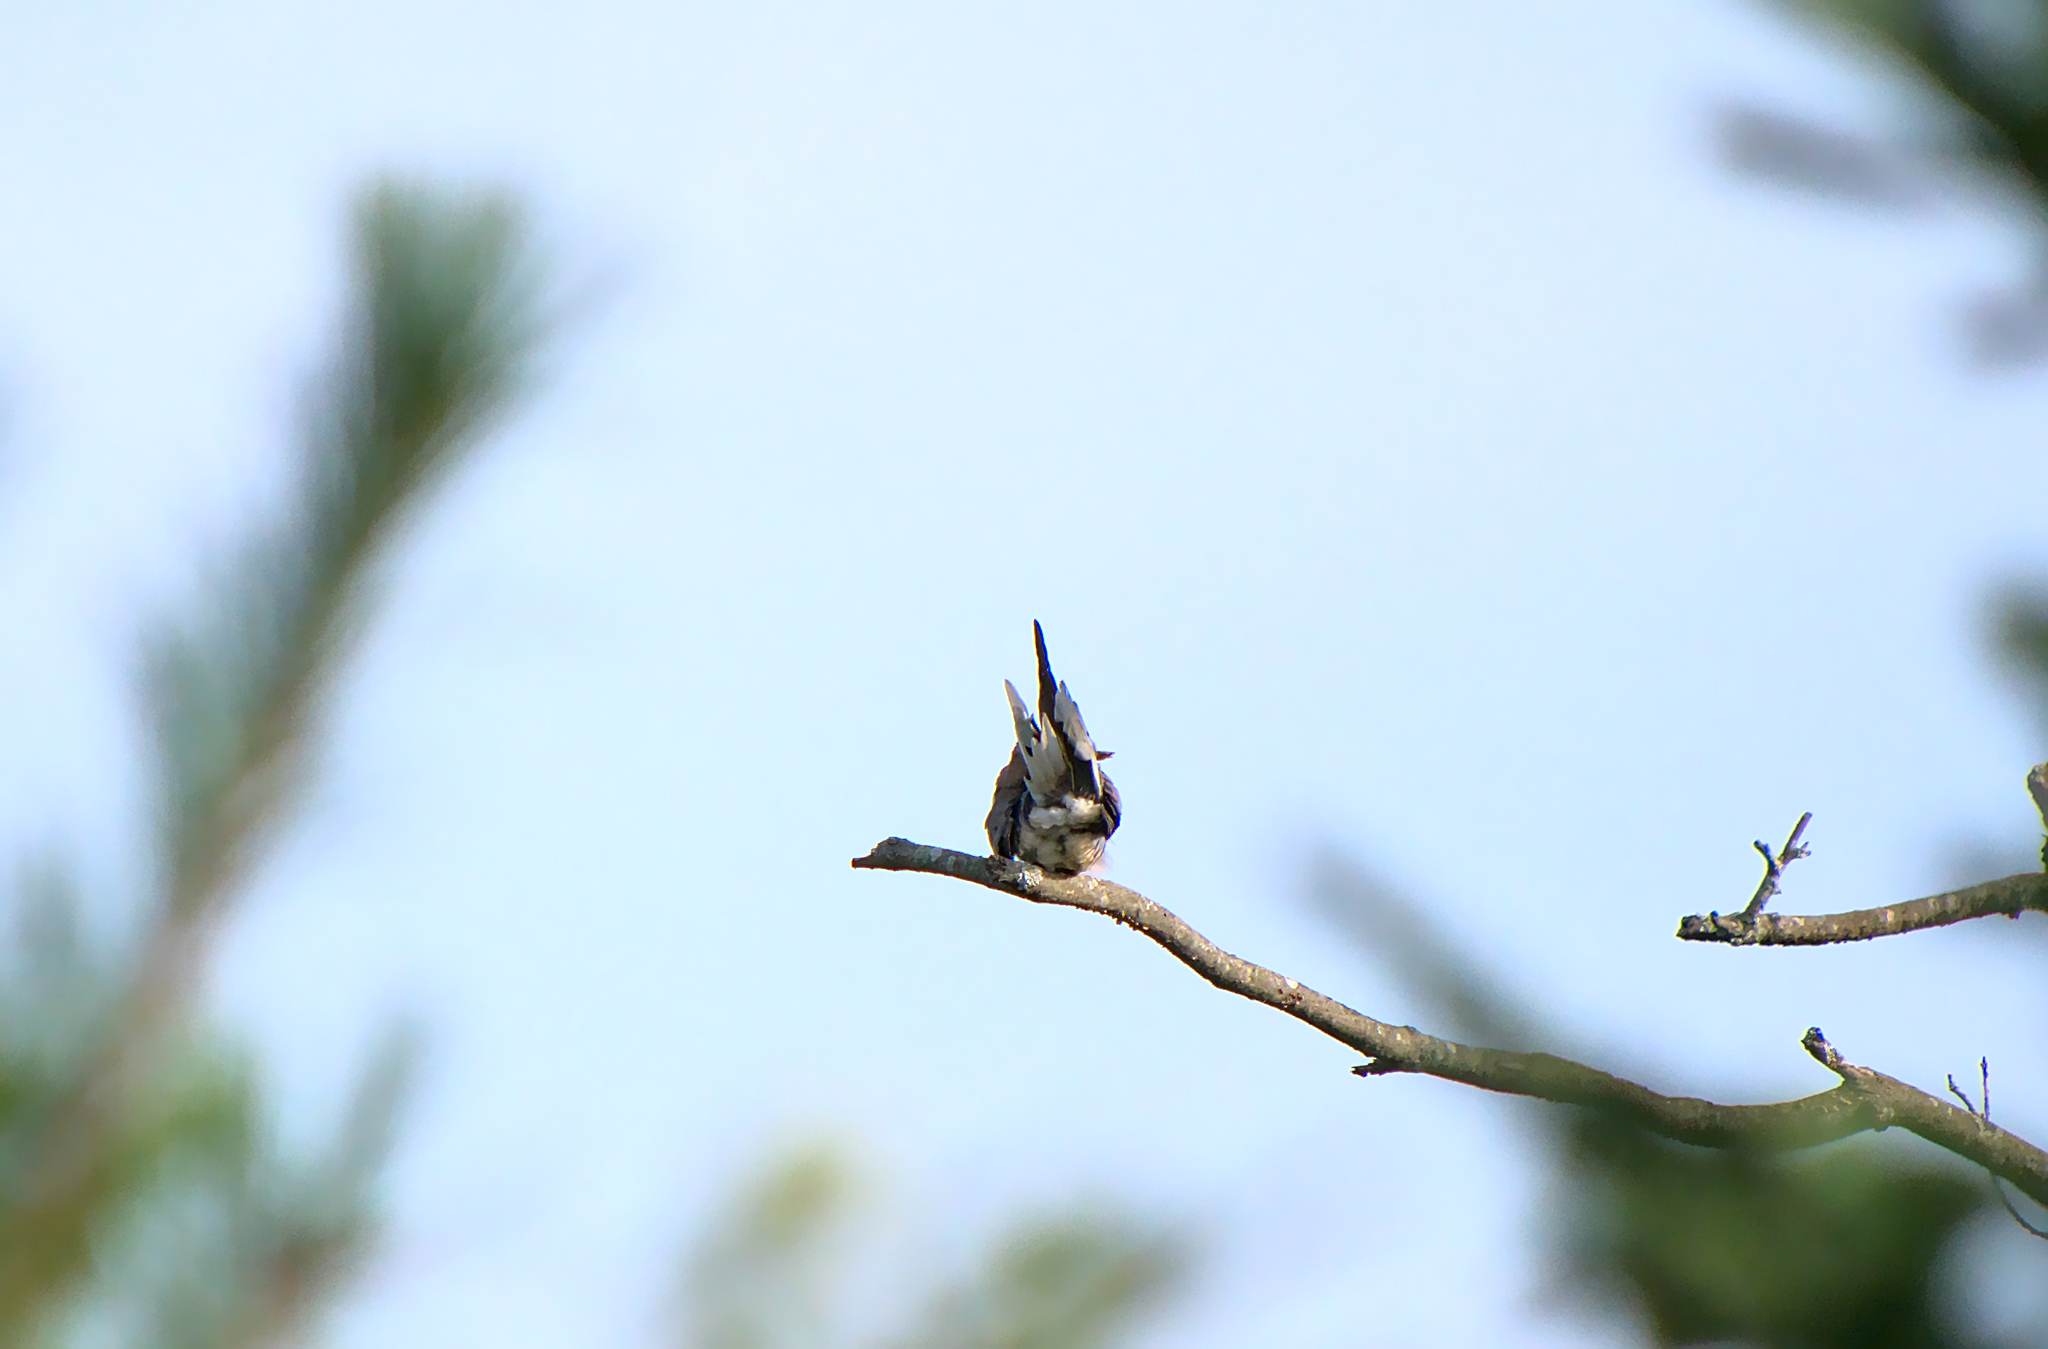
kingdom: Animalia
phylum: Chordata
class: Aves
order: Columbiformes
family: Columbidae
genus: Zenaida
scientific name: Zenaida macroura
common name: Mourning dove
